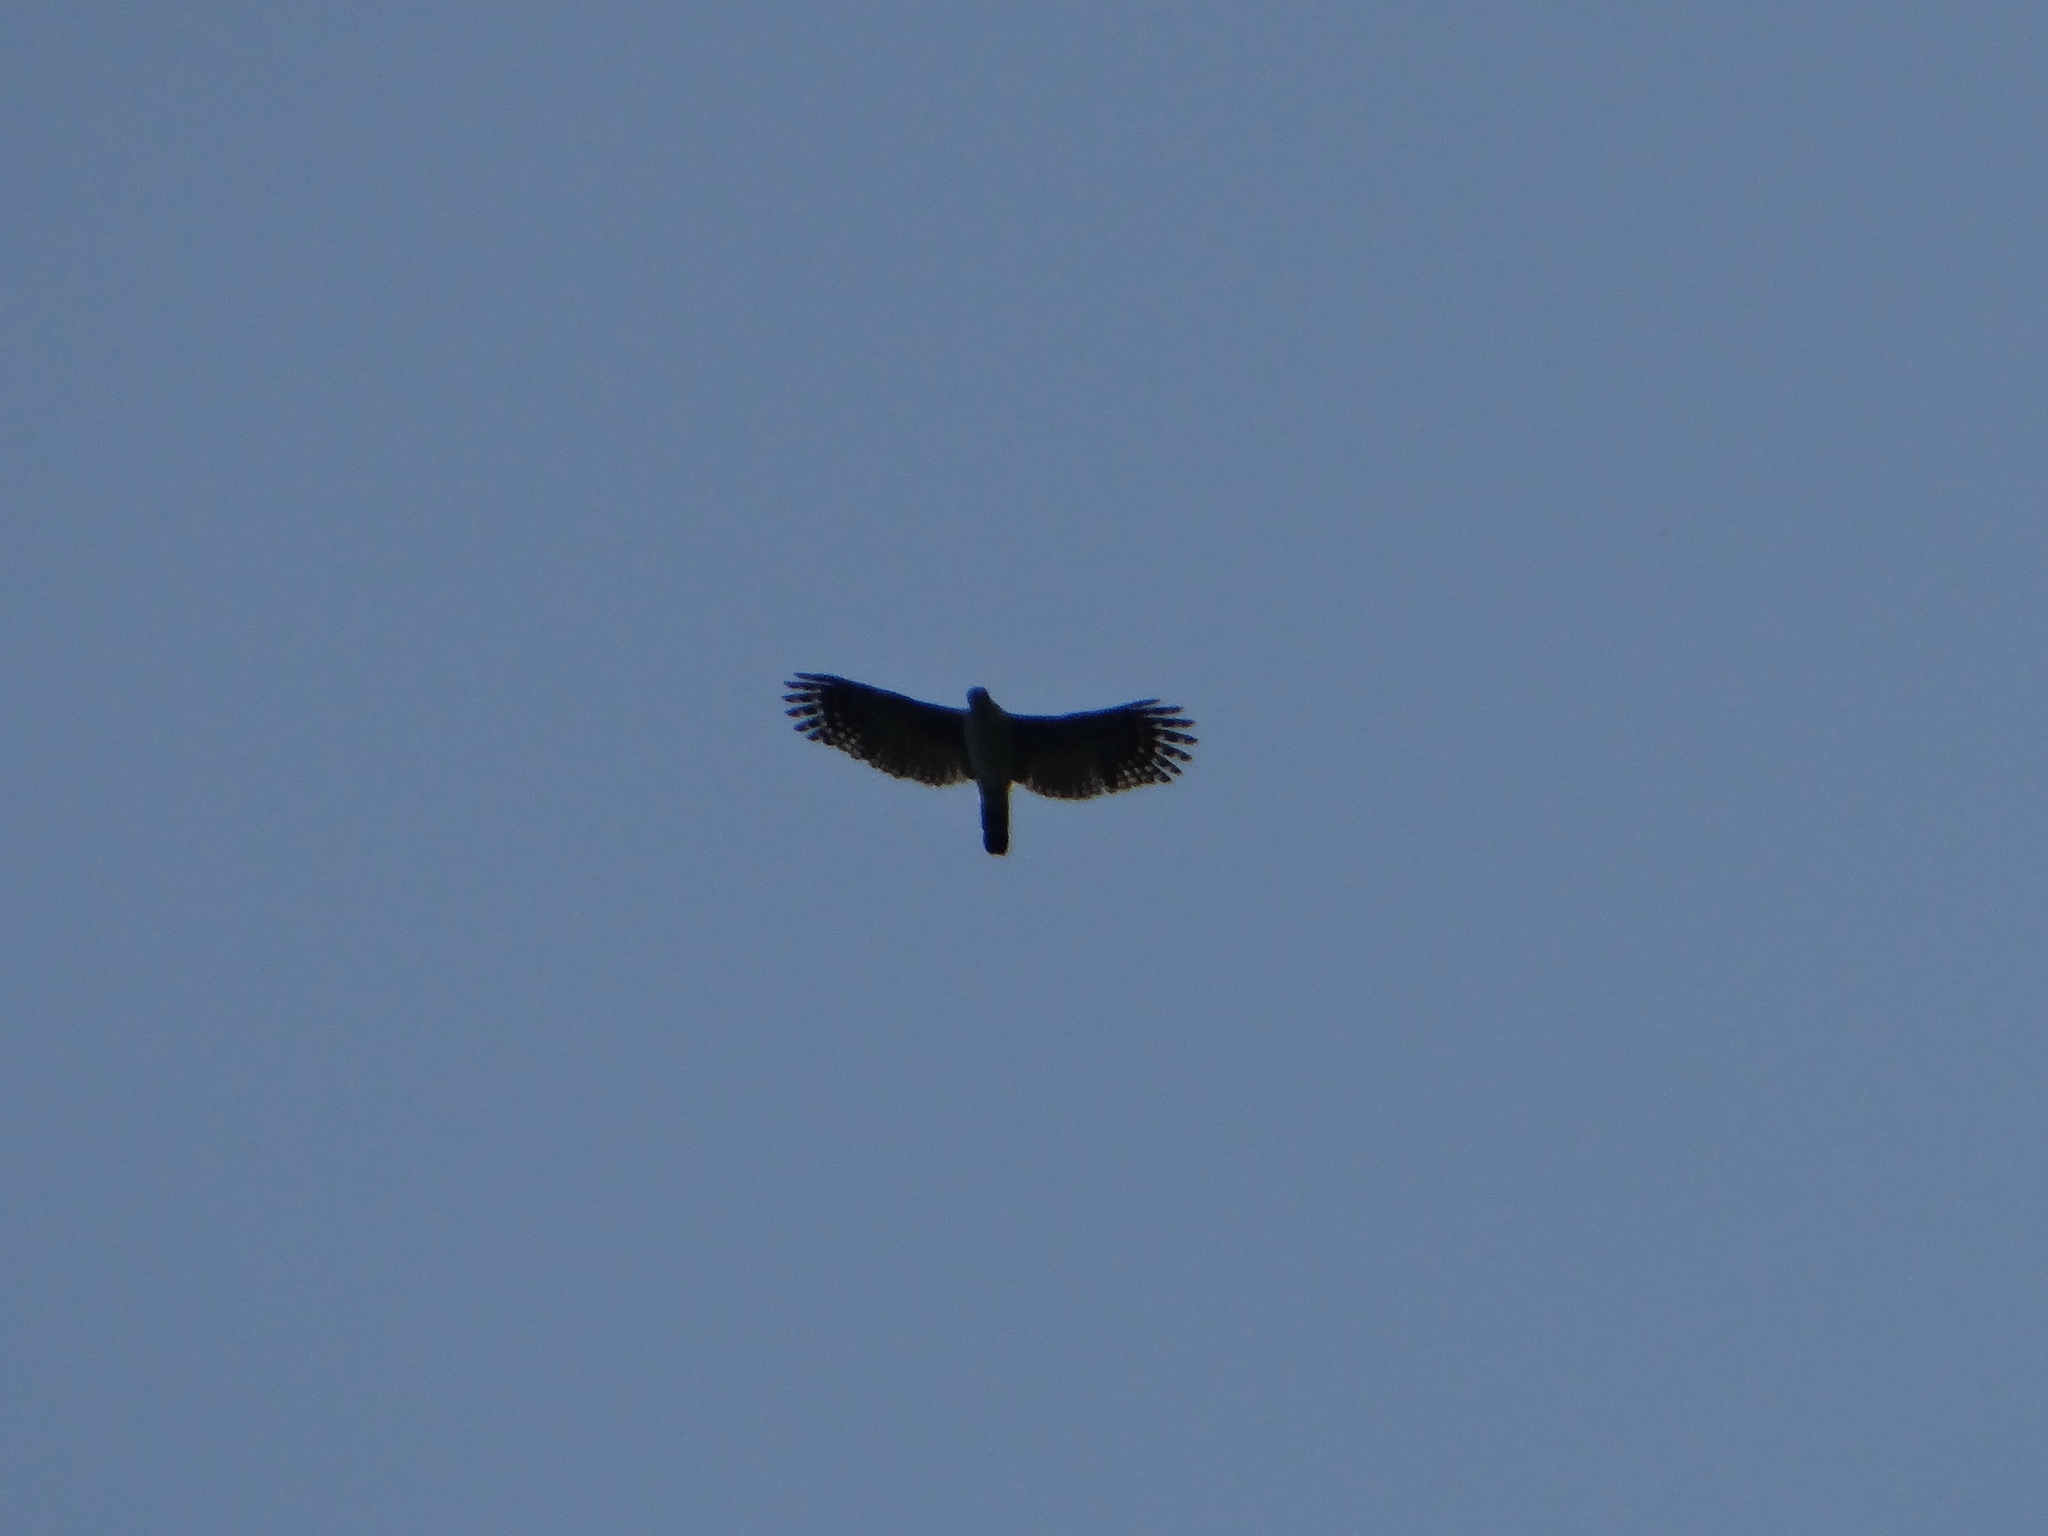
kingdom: Animalia
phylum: Chordata
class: Aves
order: Accipitriformes
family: Accipitridae
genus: Leptodon
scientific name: Leptodon cayanensis
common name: Gray-headed kite
